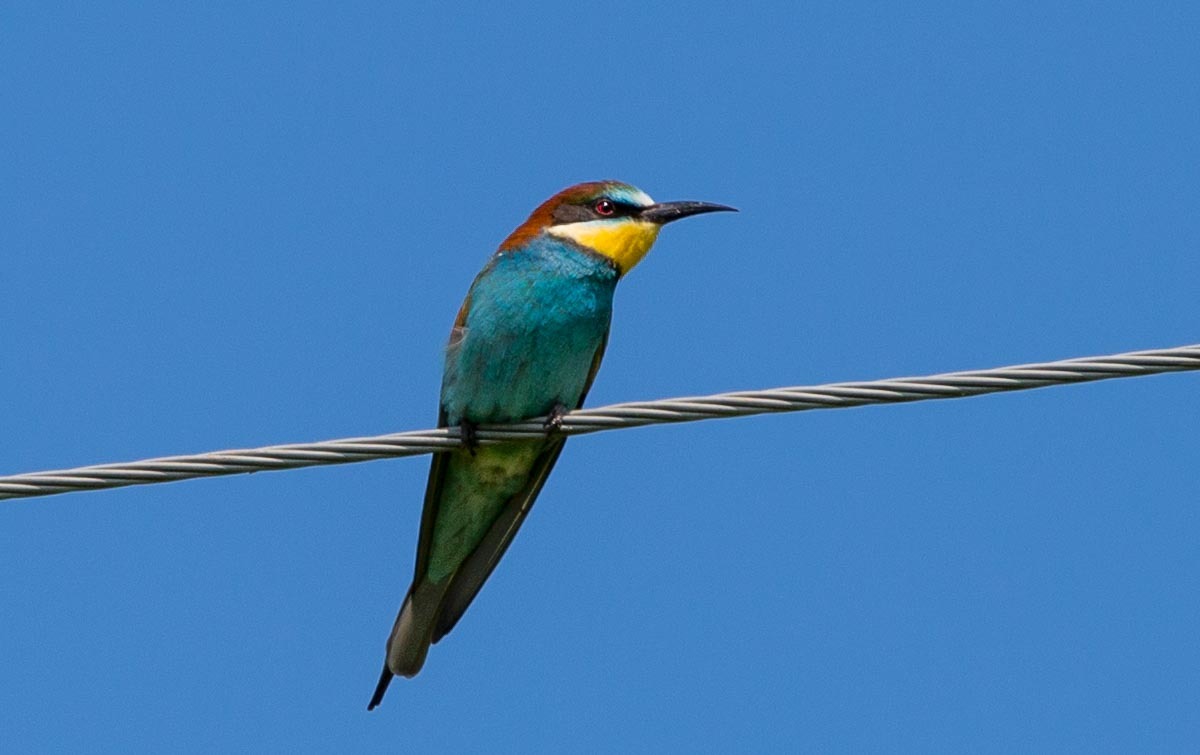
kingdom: Animalia
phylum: Chordata
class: Aves
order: Coraciiformes
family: Meropidae
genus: Merops
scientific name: Merops apiaster
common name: European bee-eater
